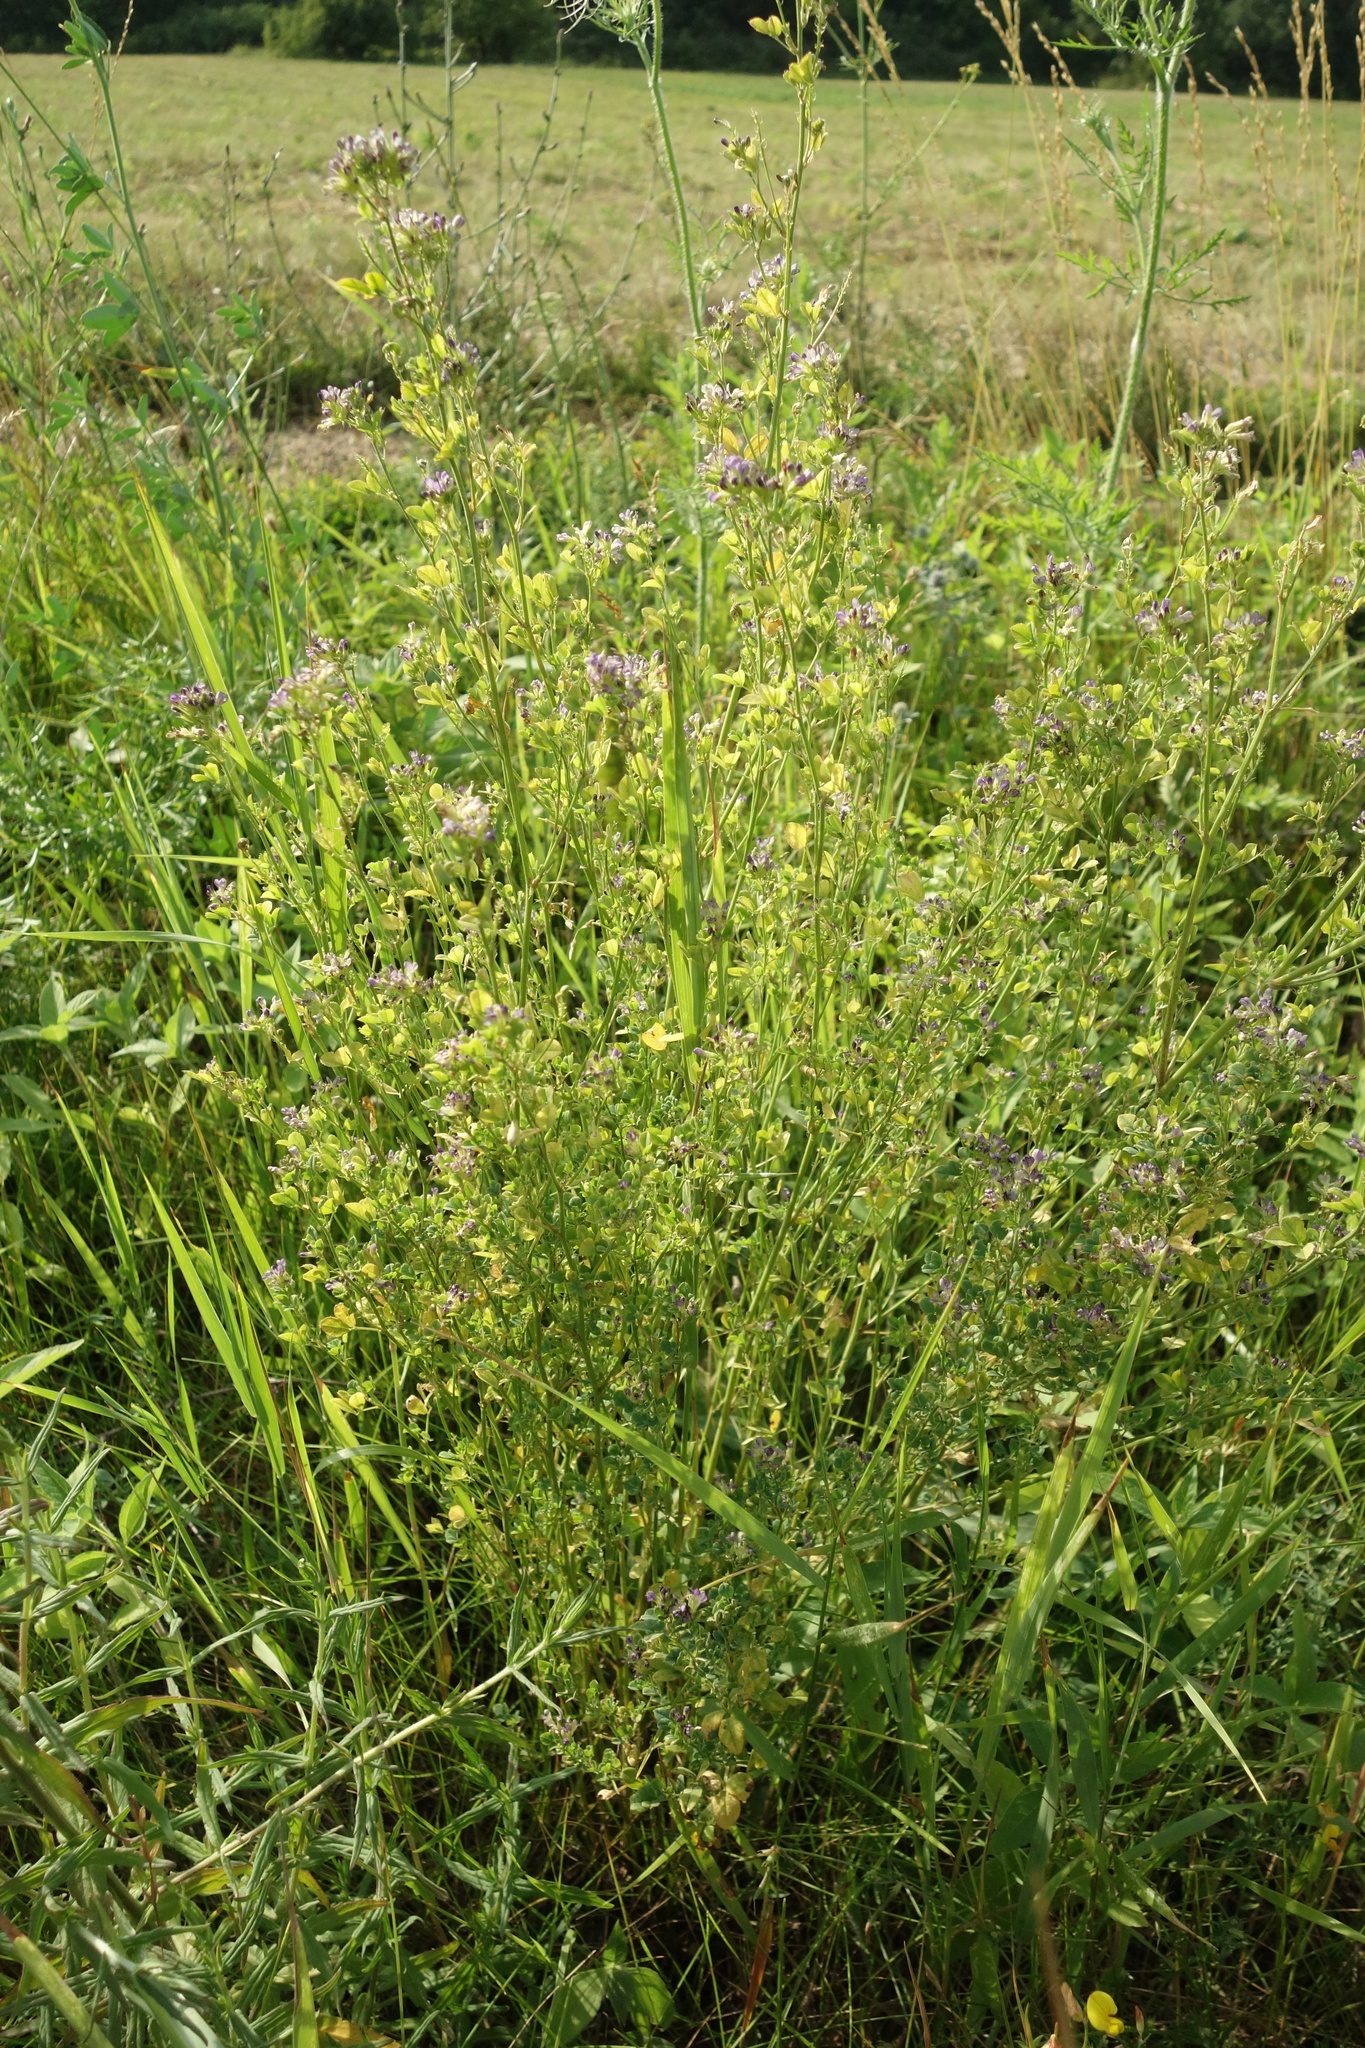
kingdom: Plantae
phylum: Tracheophyta
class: Magnoliopsida
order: Fabales
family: Fabaceae
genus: Medicago
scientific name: Medicago sativa
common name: Alfalfa
